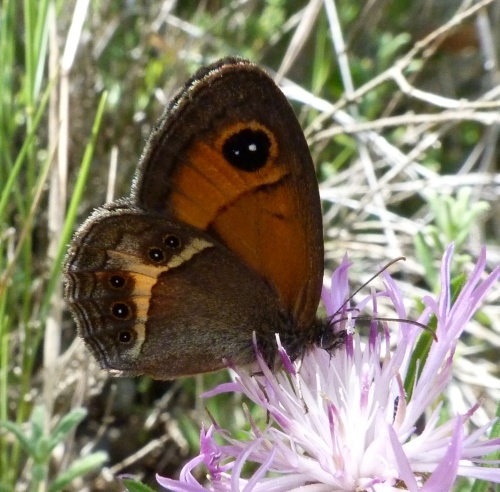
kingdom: Animalia
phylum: Arthropoda
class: Insecta
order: Lepidoptera
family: Nymphalidae
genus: Pyronia
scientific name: Pyronia bathseba
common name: Spanish gatekeeper
